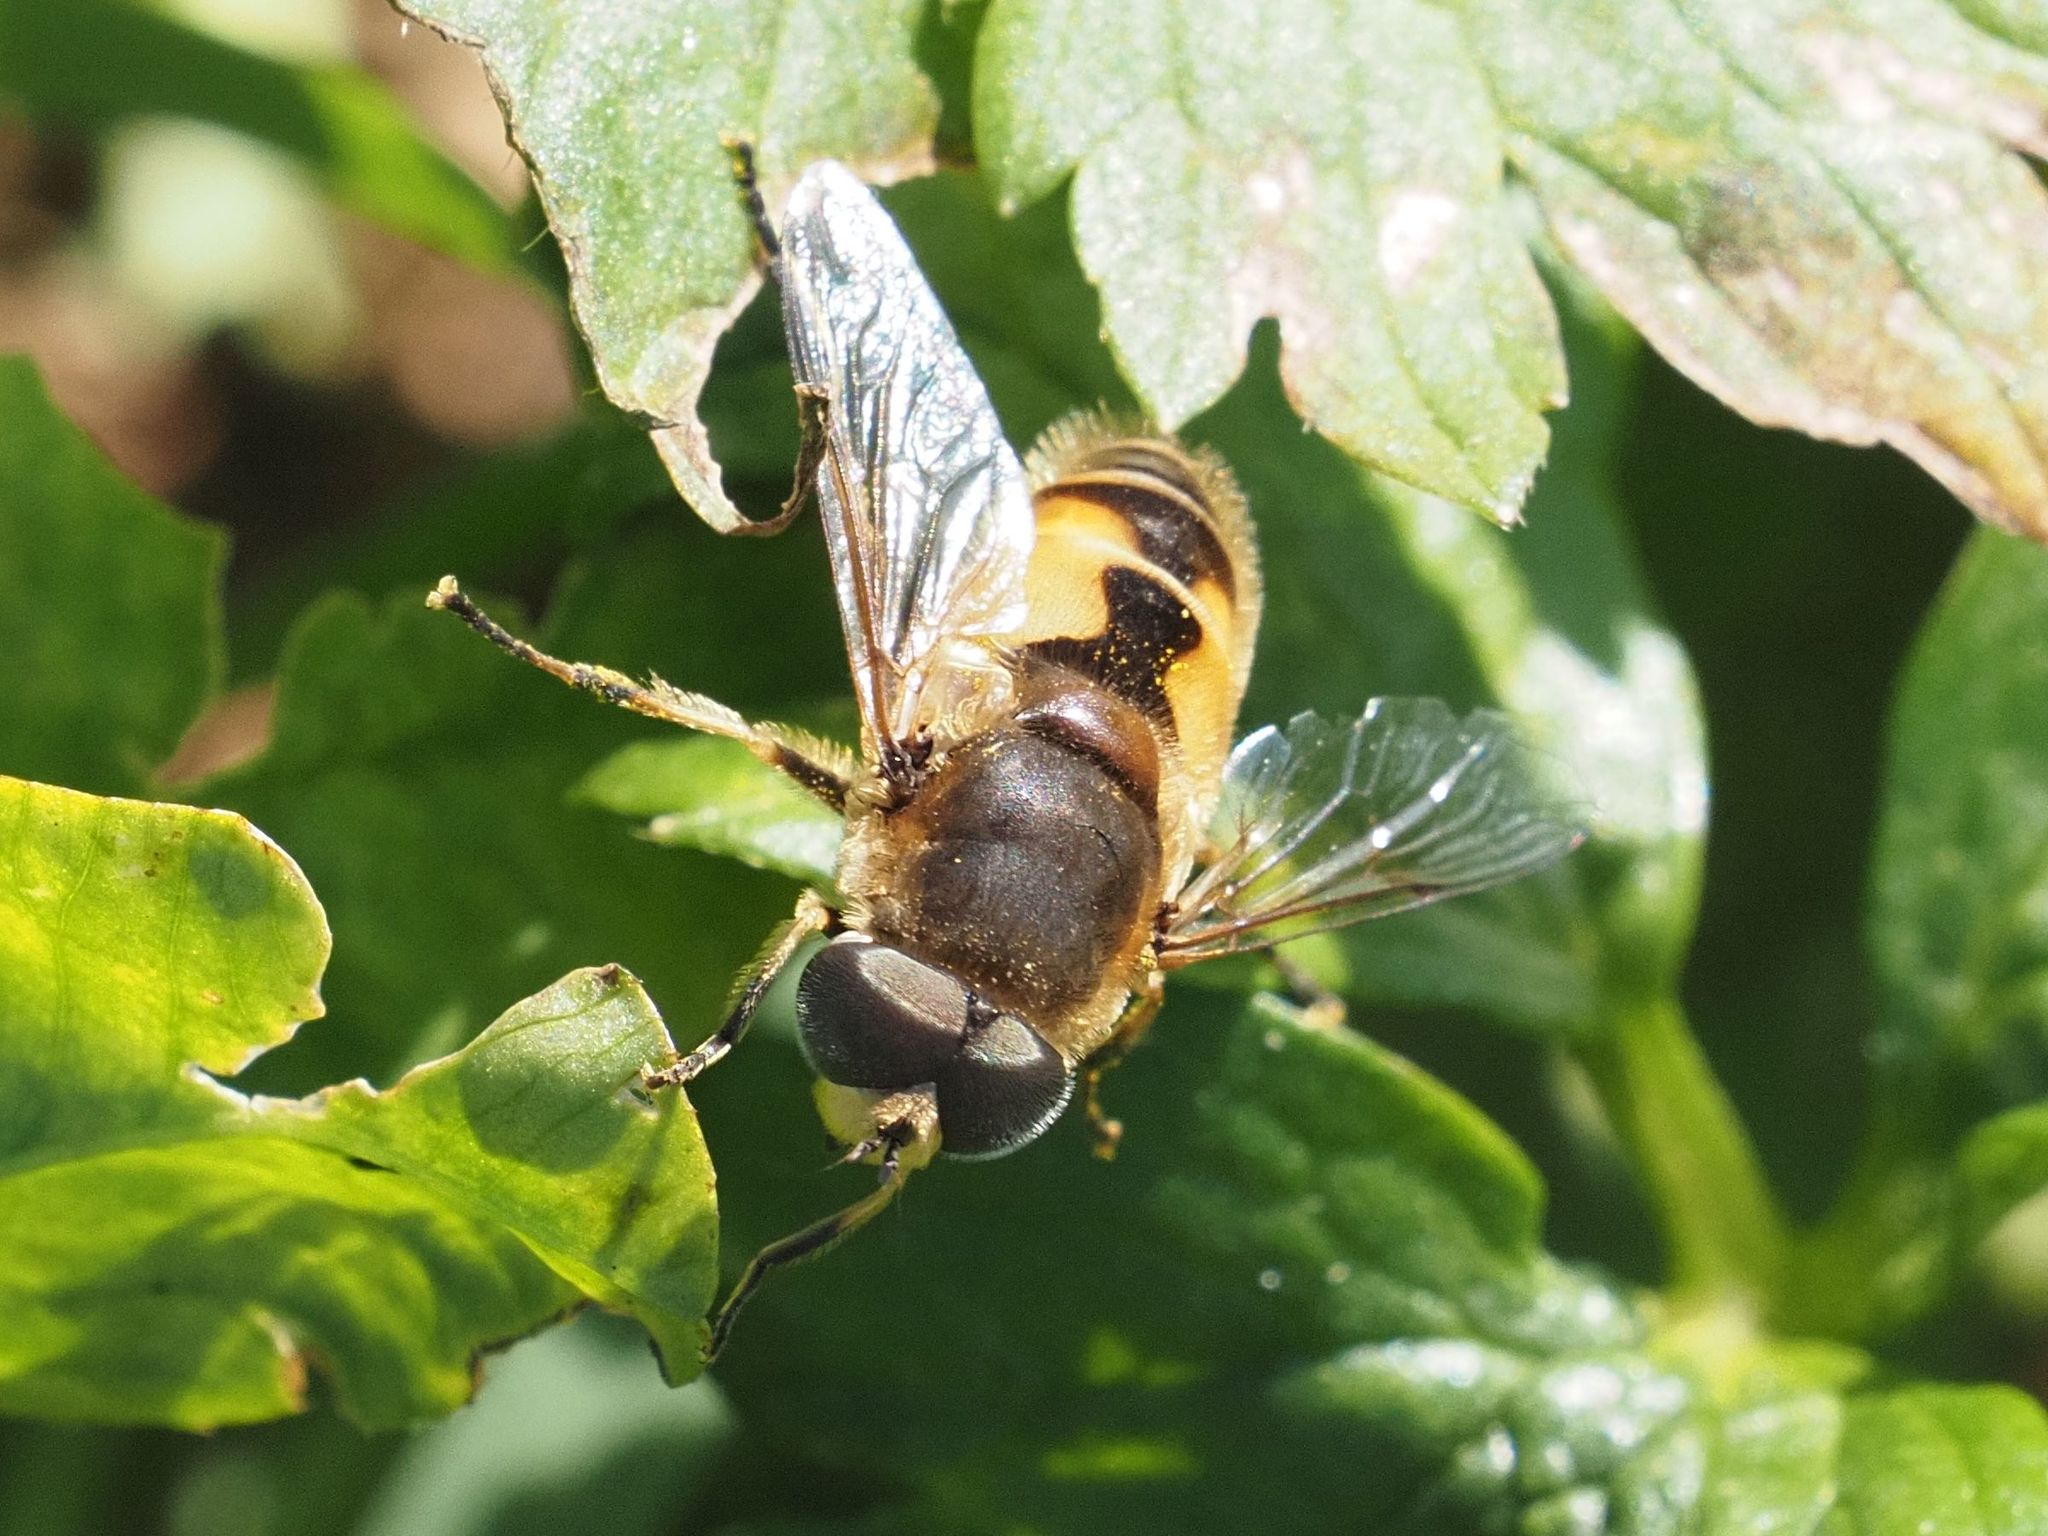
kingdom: Animalia
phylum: Arthropoda
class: Insecta
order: Diptera
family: Syrphidae
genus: Eristalis
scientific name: Eristalis arbustorum
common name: Hover fly
